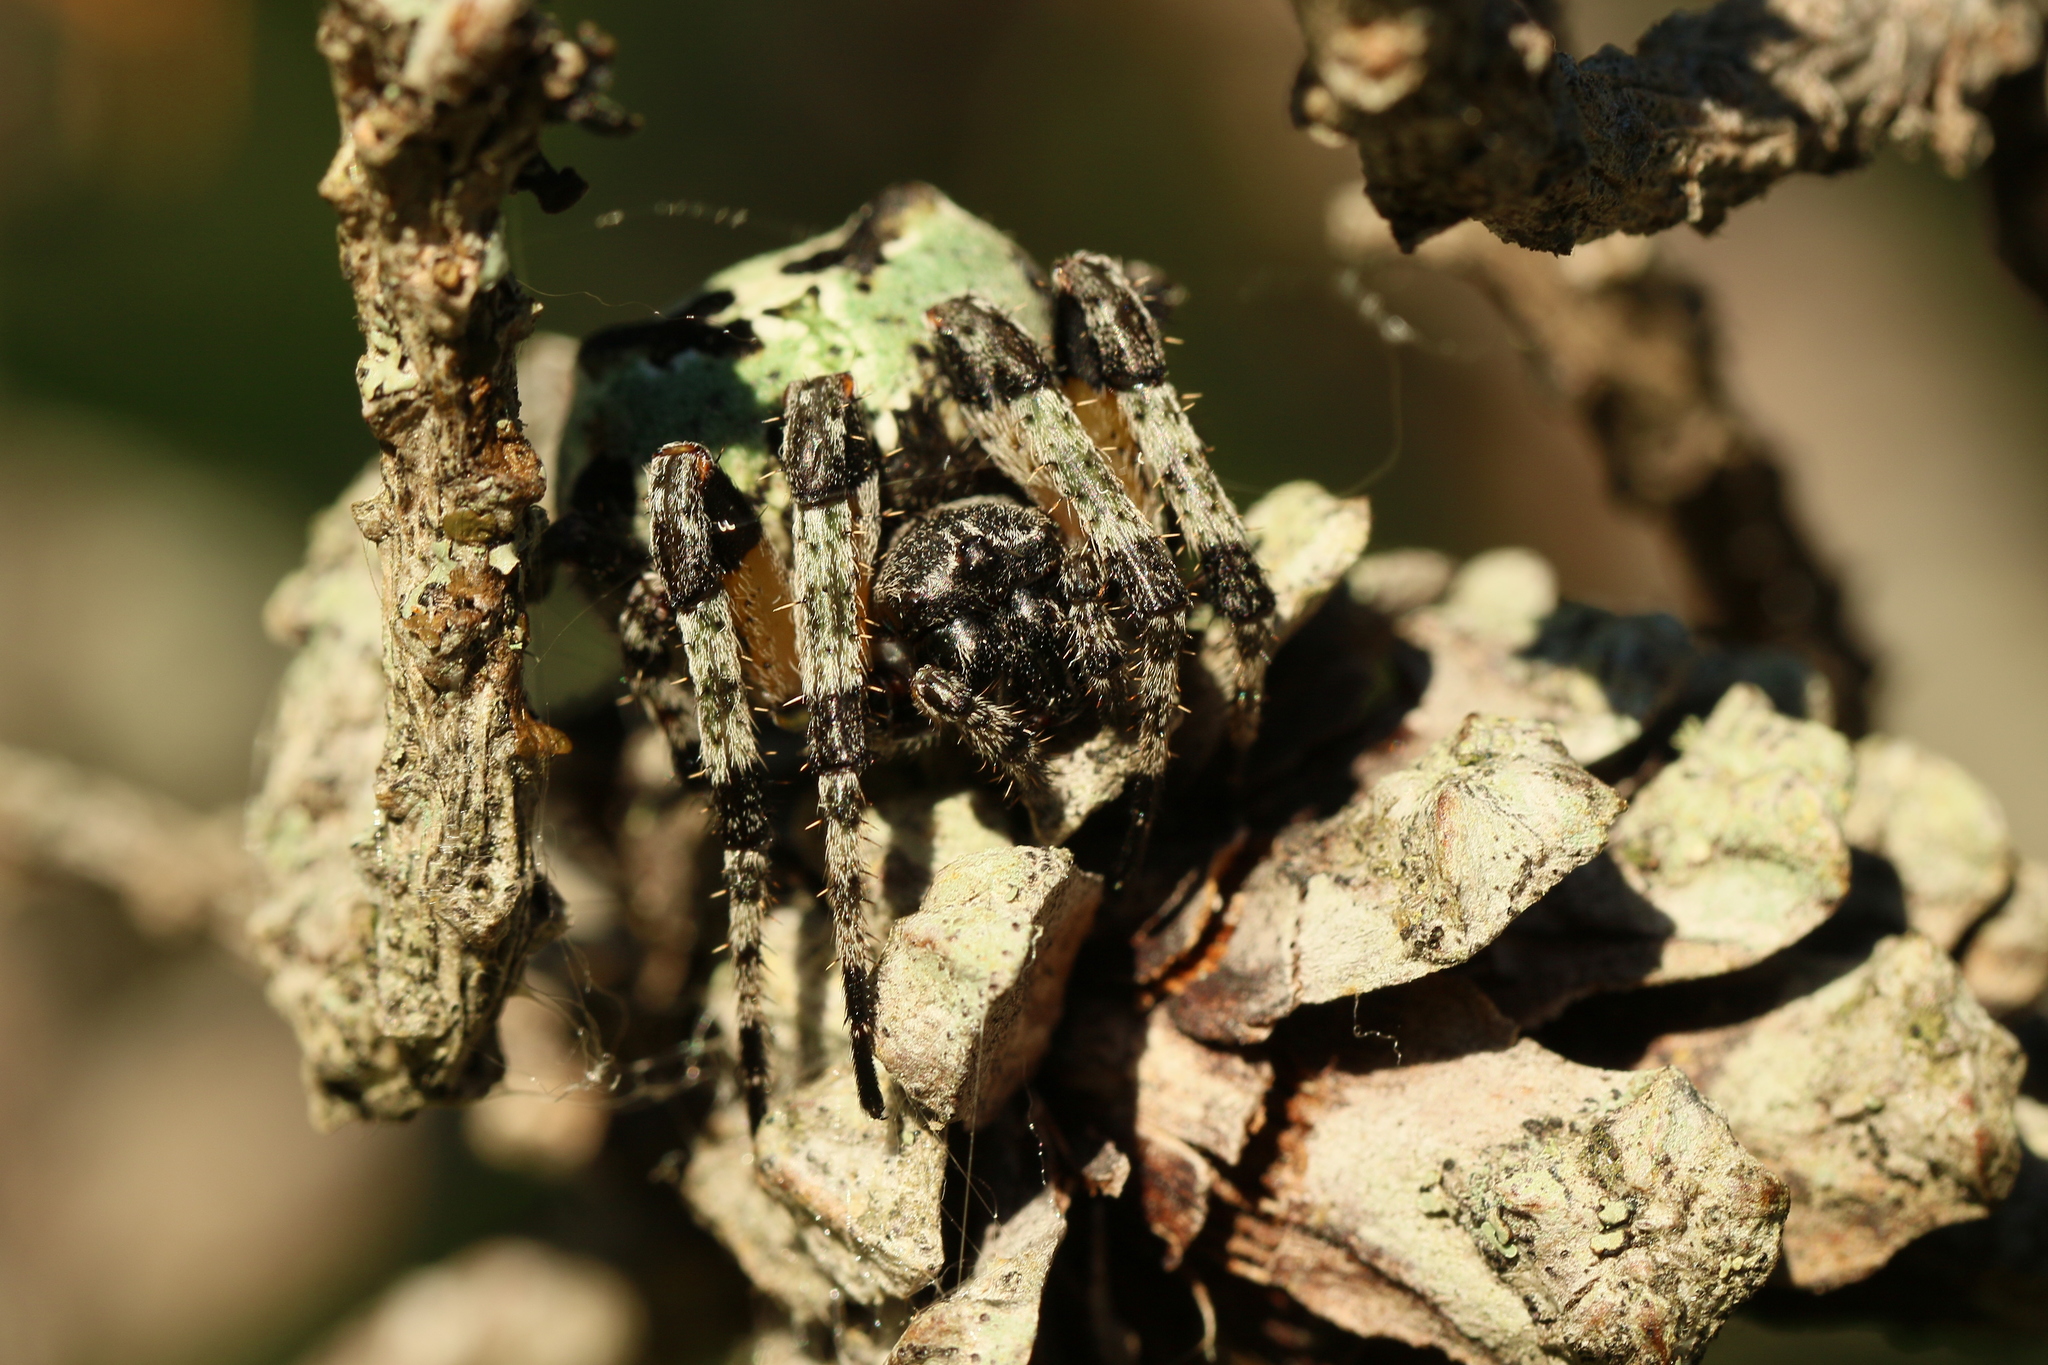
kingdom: Animalia
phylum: Arthropoda
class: Arachnida
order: Araneae
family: Araneidae
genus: Araneus
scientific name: Araneus bicentenarius
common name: Giant lichen orbweaver
